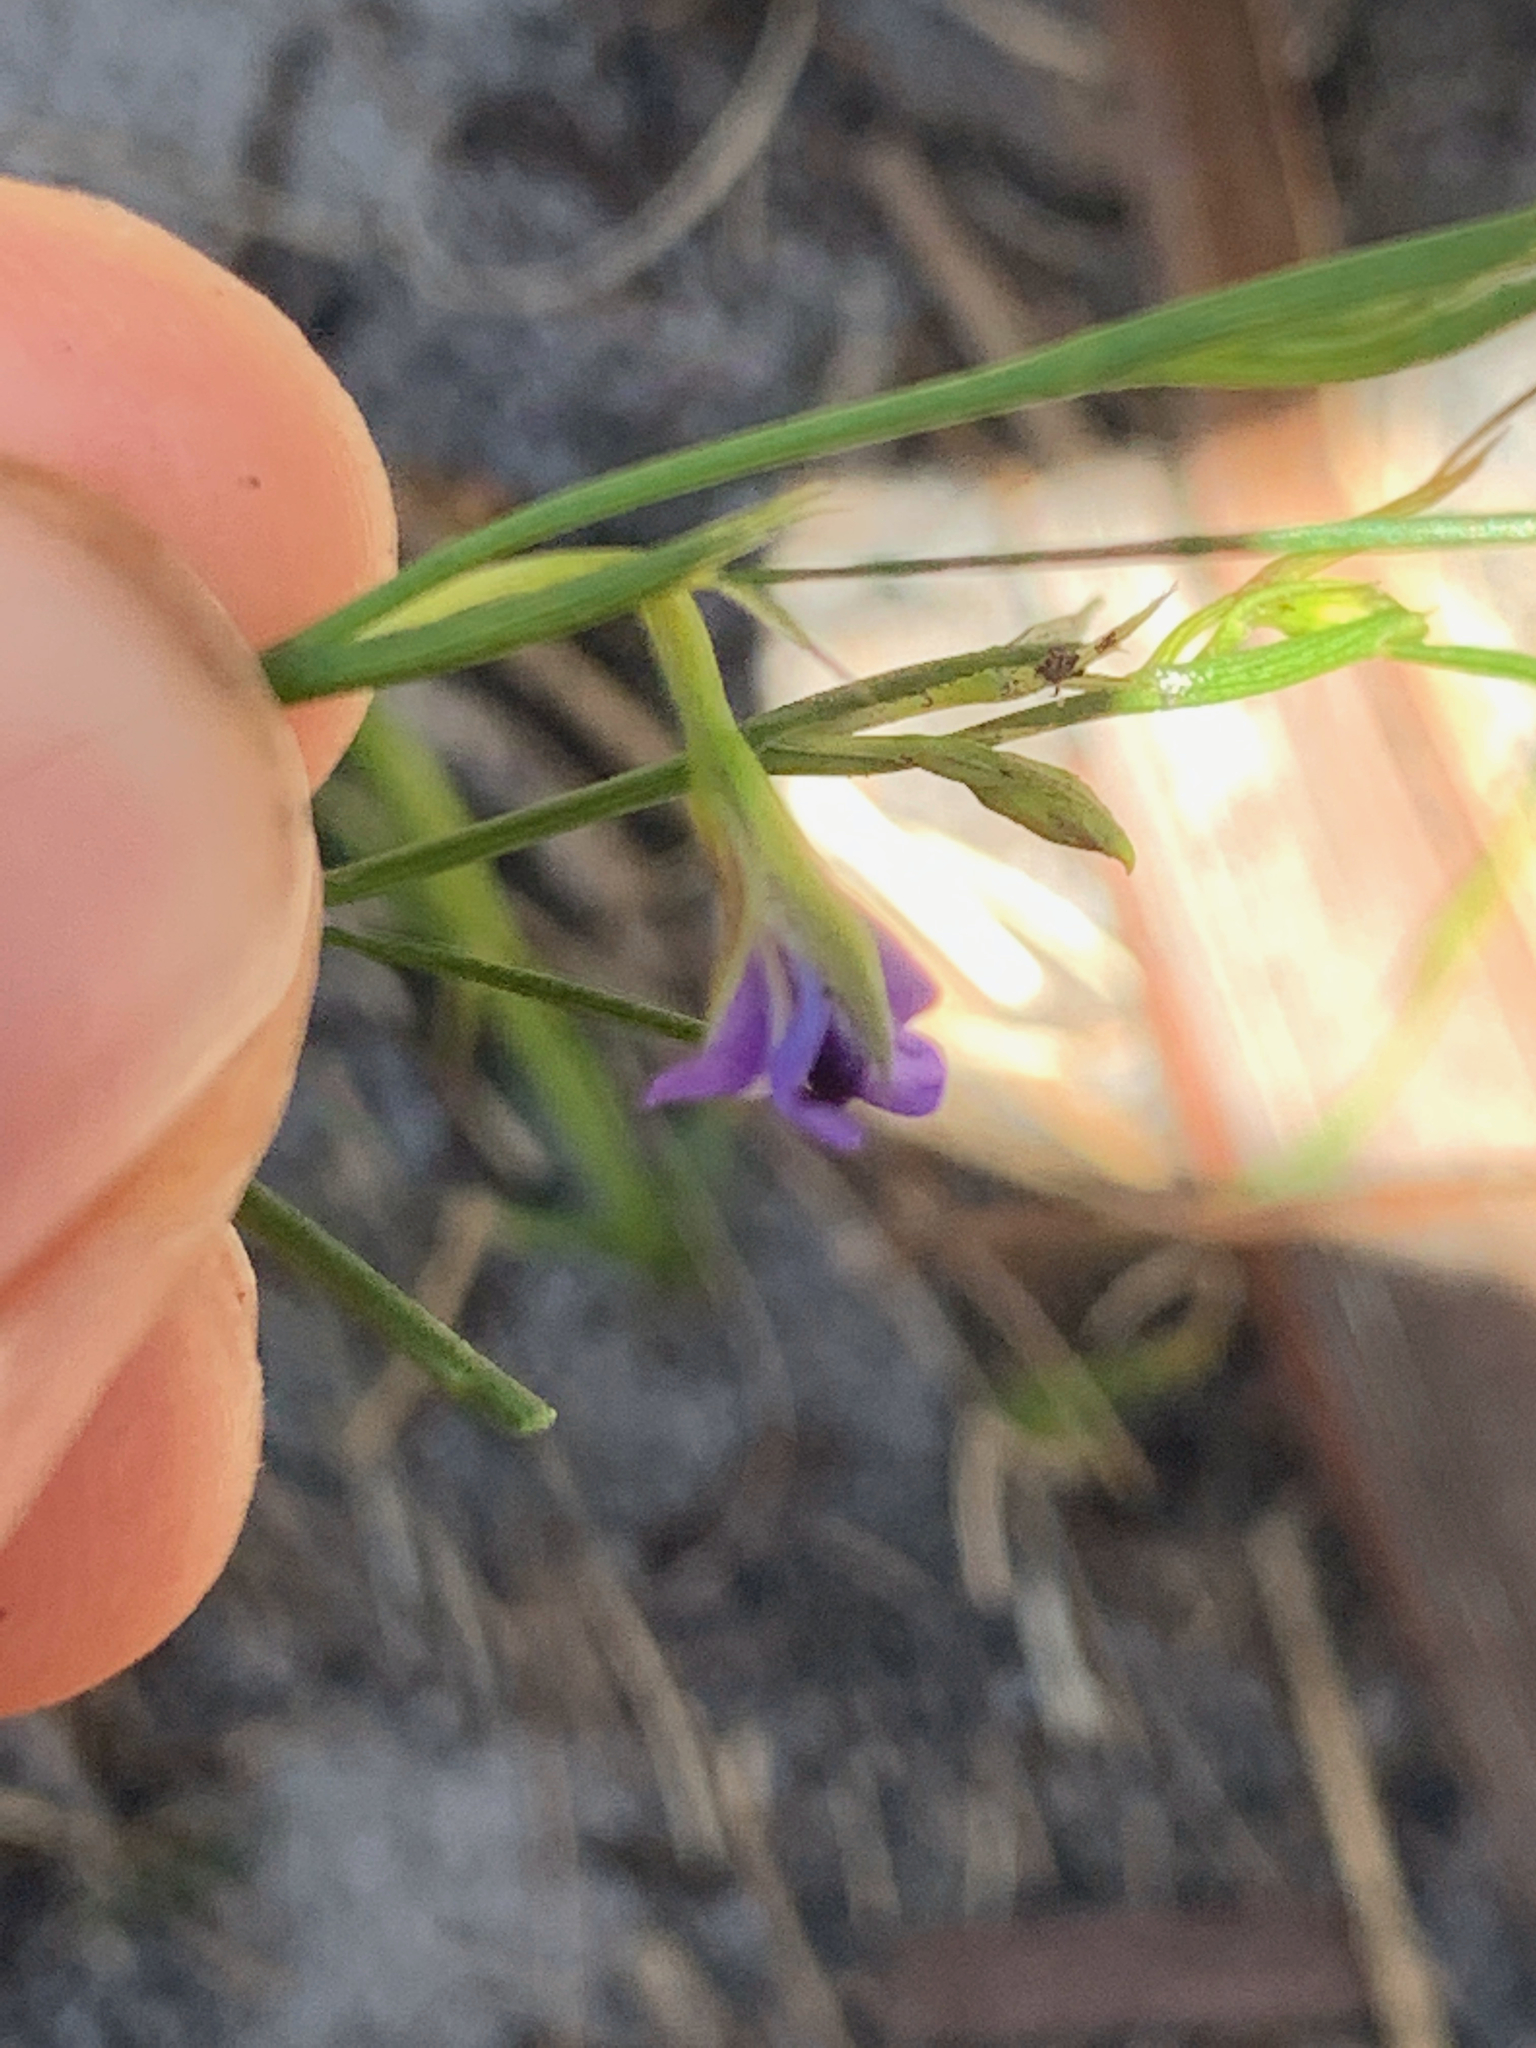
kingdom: Plantae
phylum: Tracheophyta
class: Magnoliopsida
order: Fabales
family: Fabaceae
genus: Psoralea
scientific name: Psoralea fascicularis
